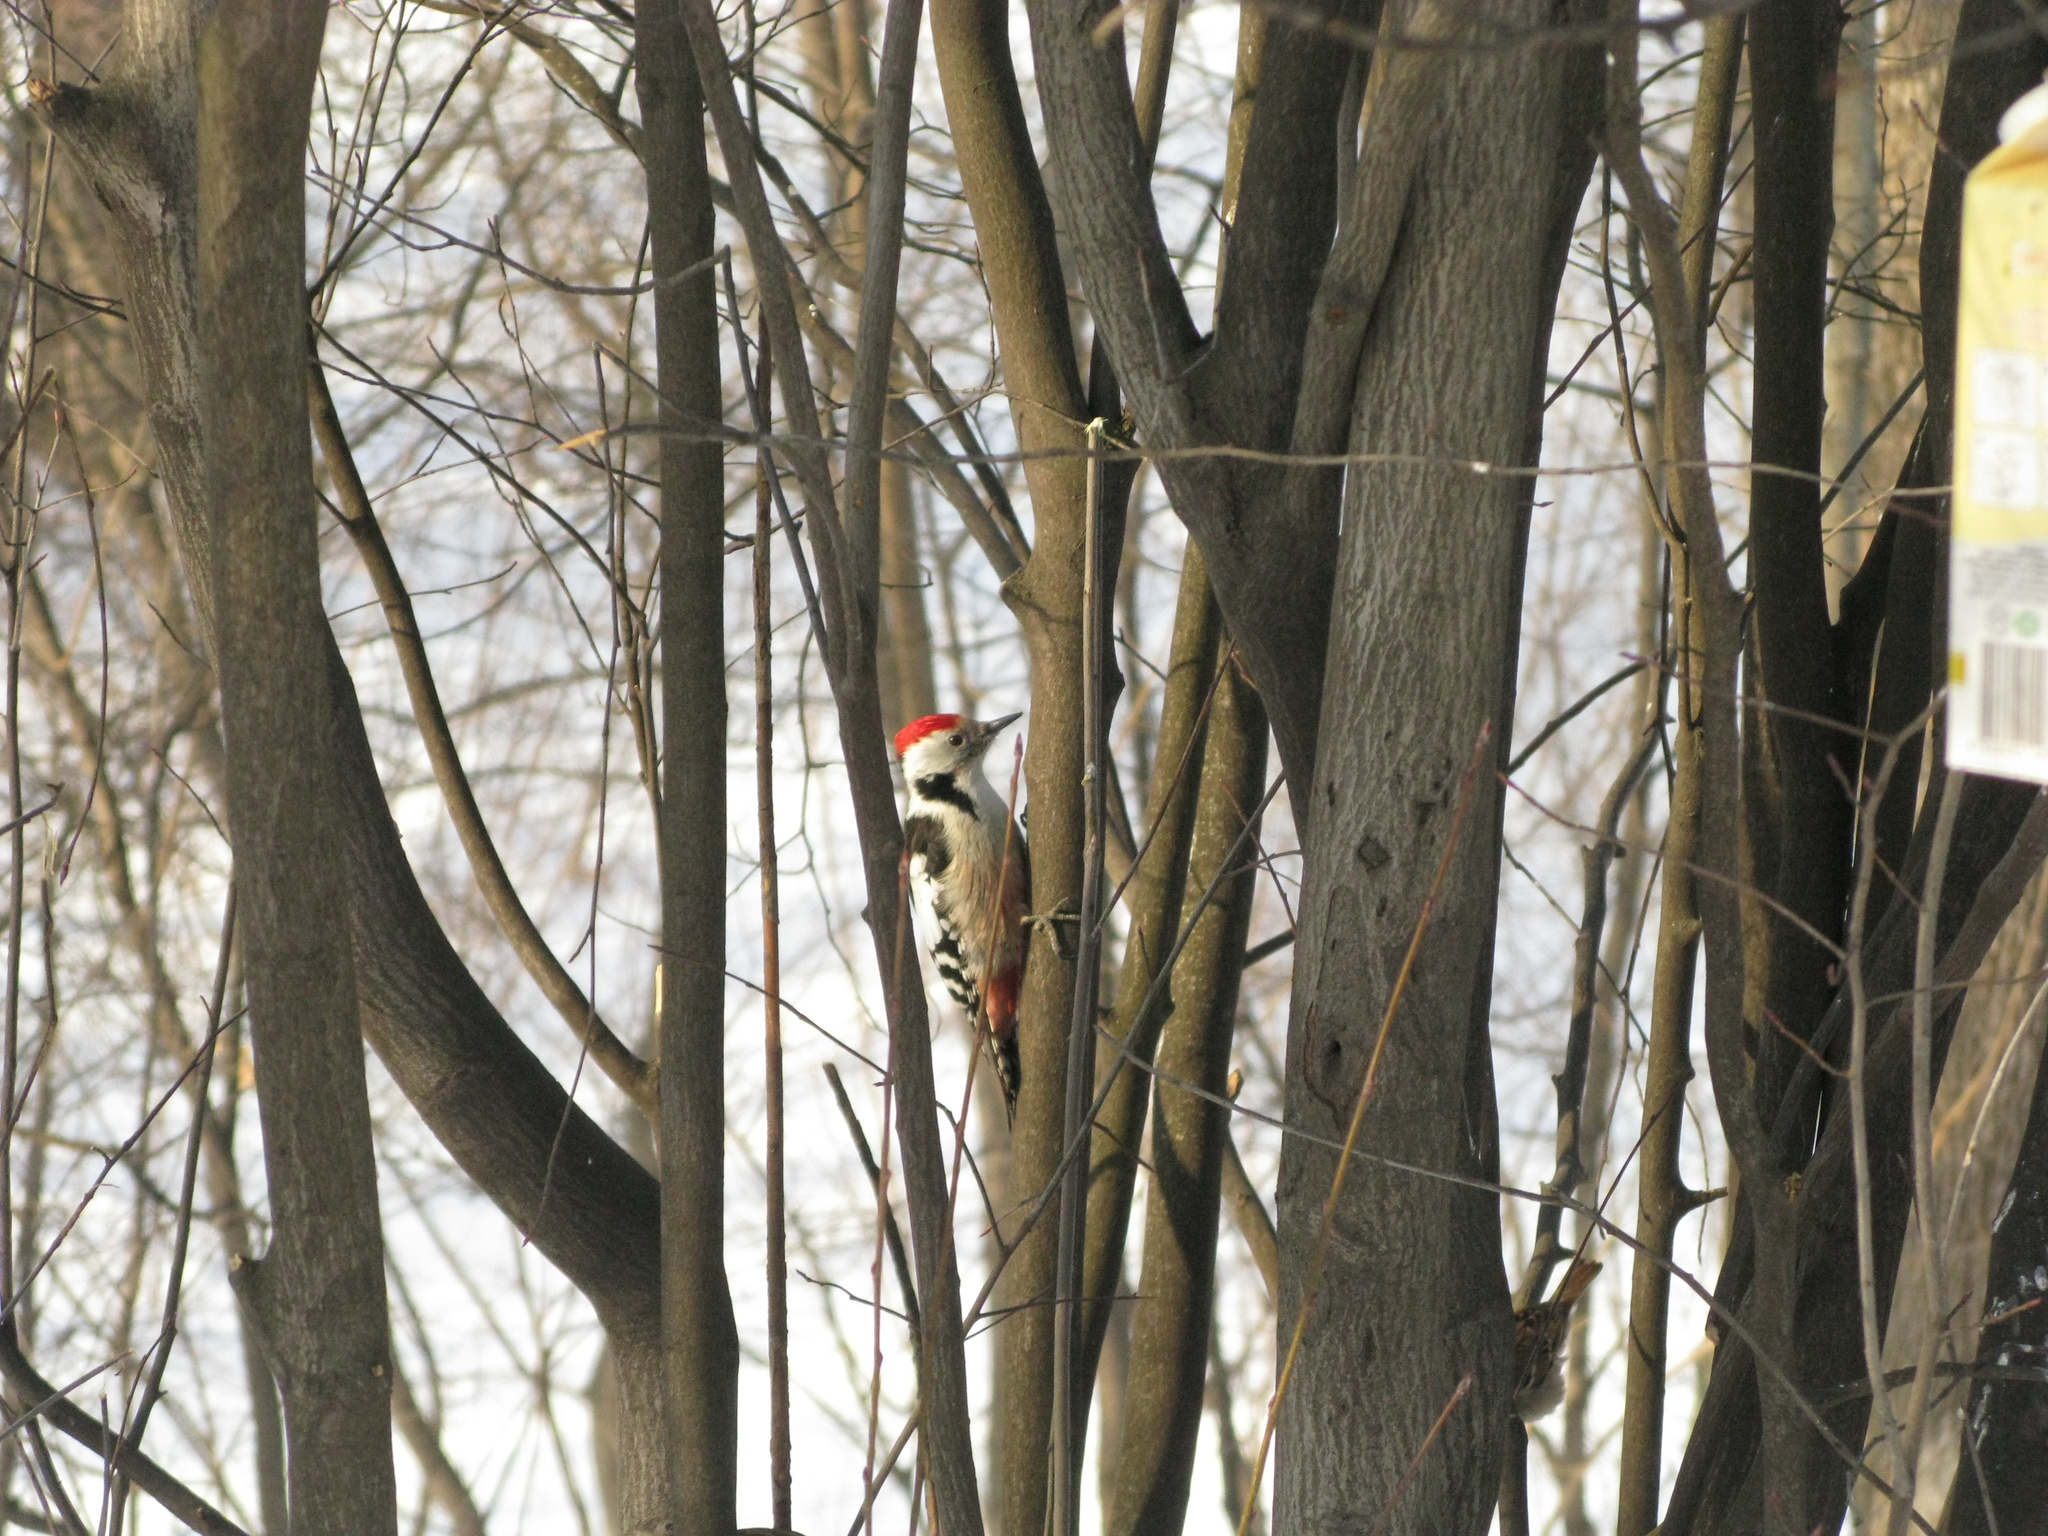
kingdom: Animalia
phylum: Chordata
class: Aves
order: Piciformes
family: Picidae
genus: Dendrocoptes
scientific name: Dendrocoptes medius
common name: Middle spotted woodpecker
